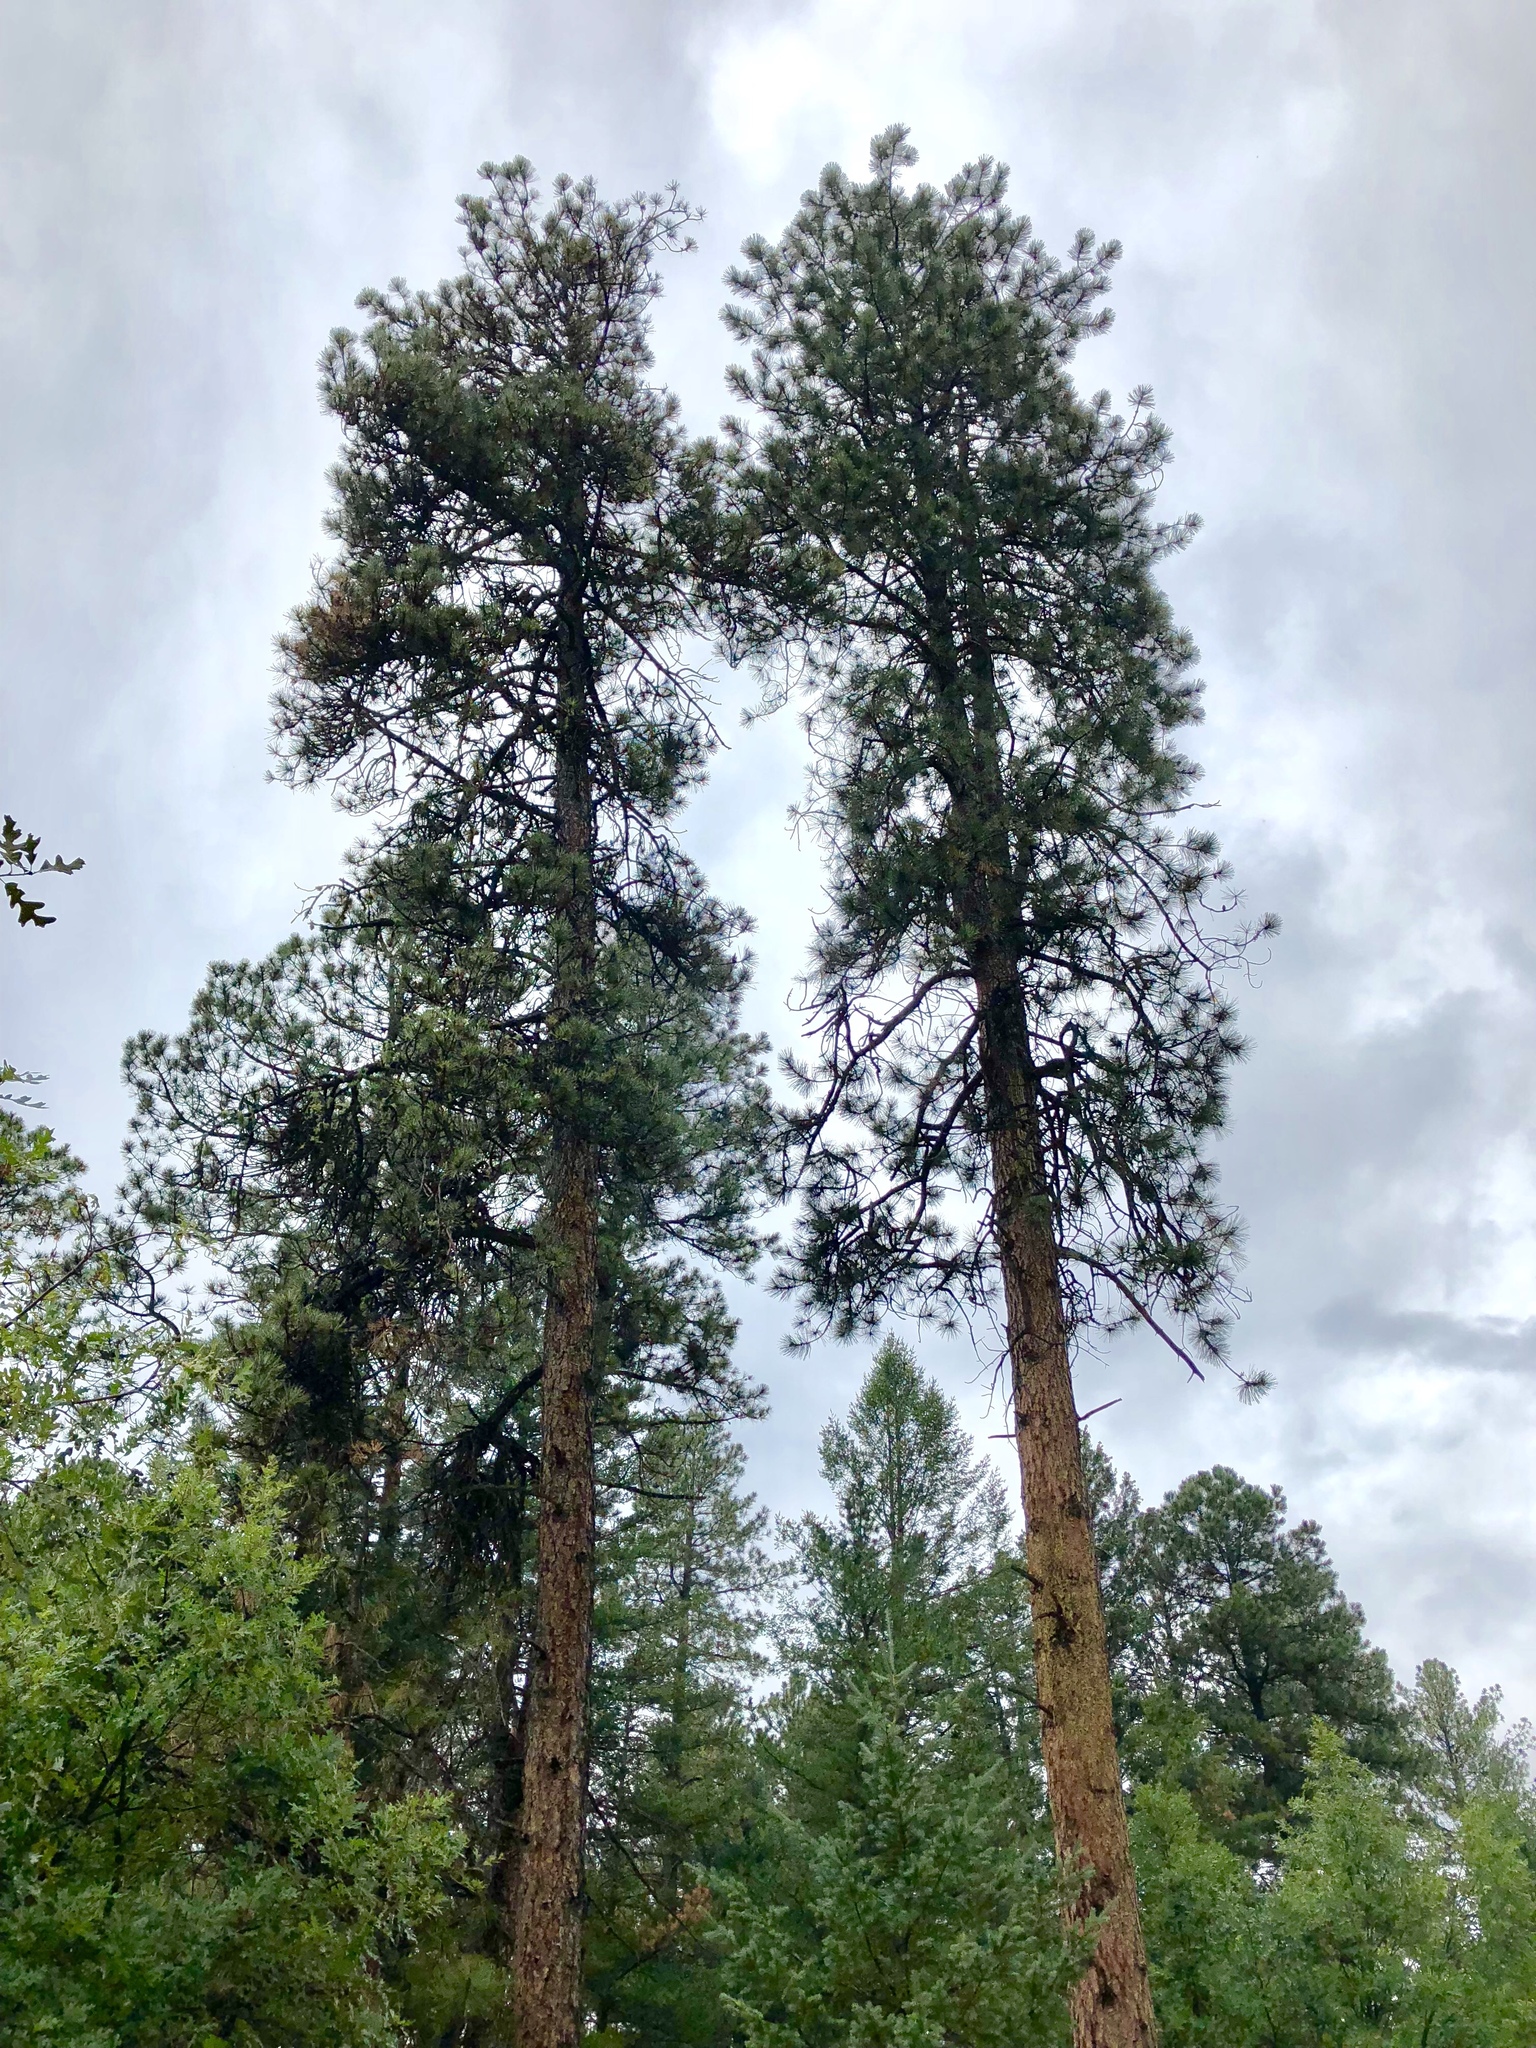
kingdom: Plantae
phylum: Tracheophyta
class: Pinopsida
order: Pinales
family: Pinaceae
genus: Pinus
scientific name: Pinus ponderosa
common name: Western yellow-pine
